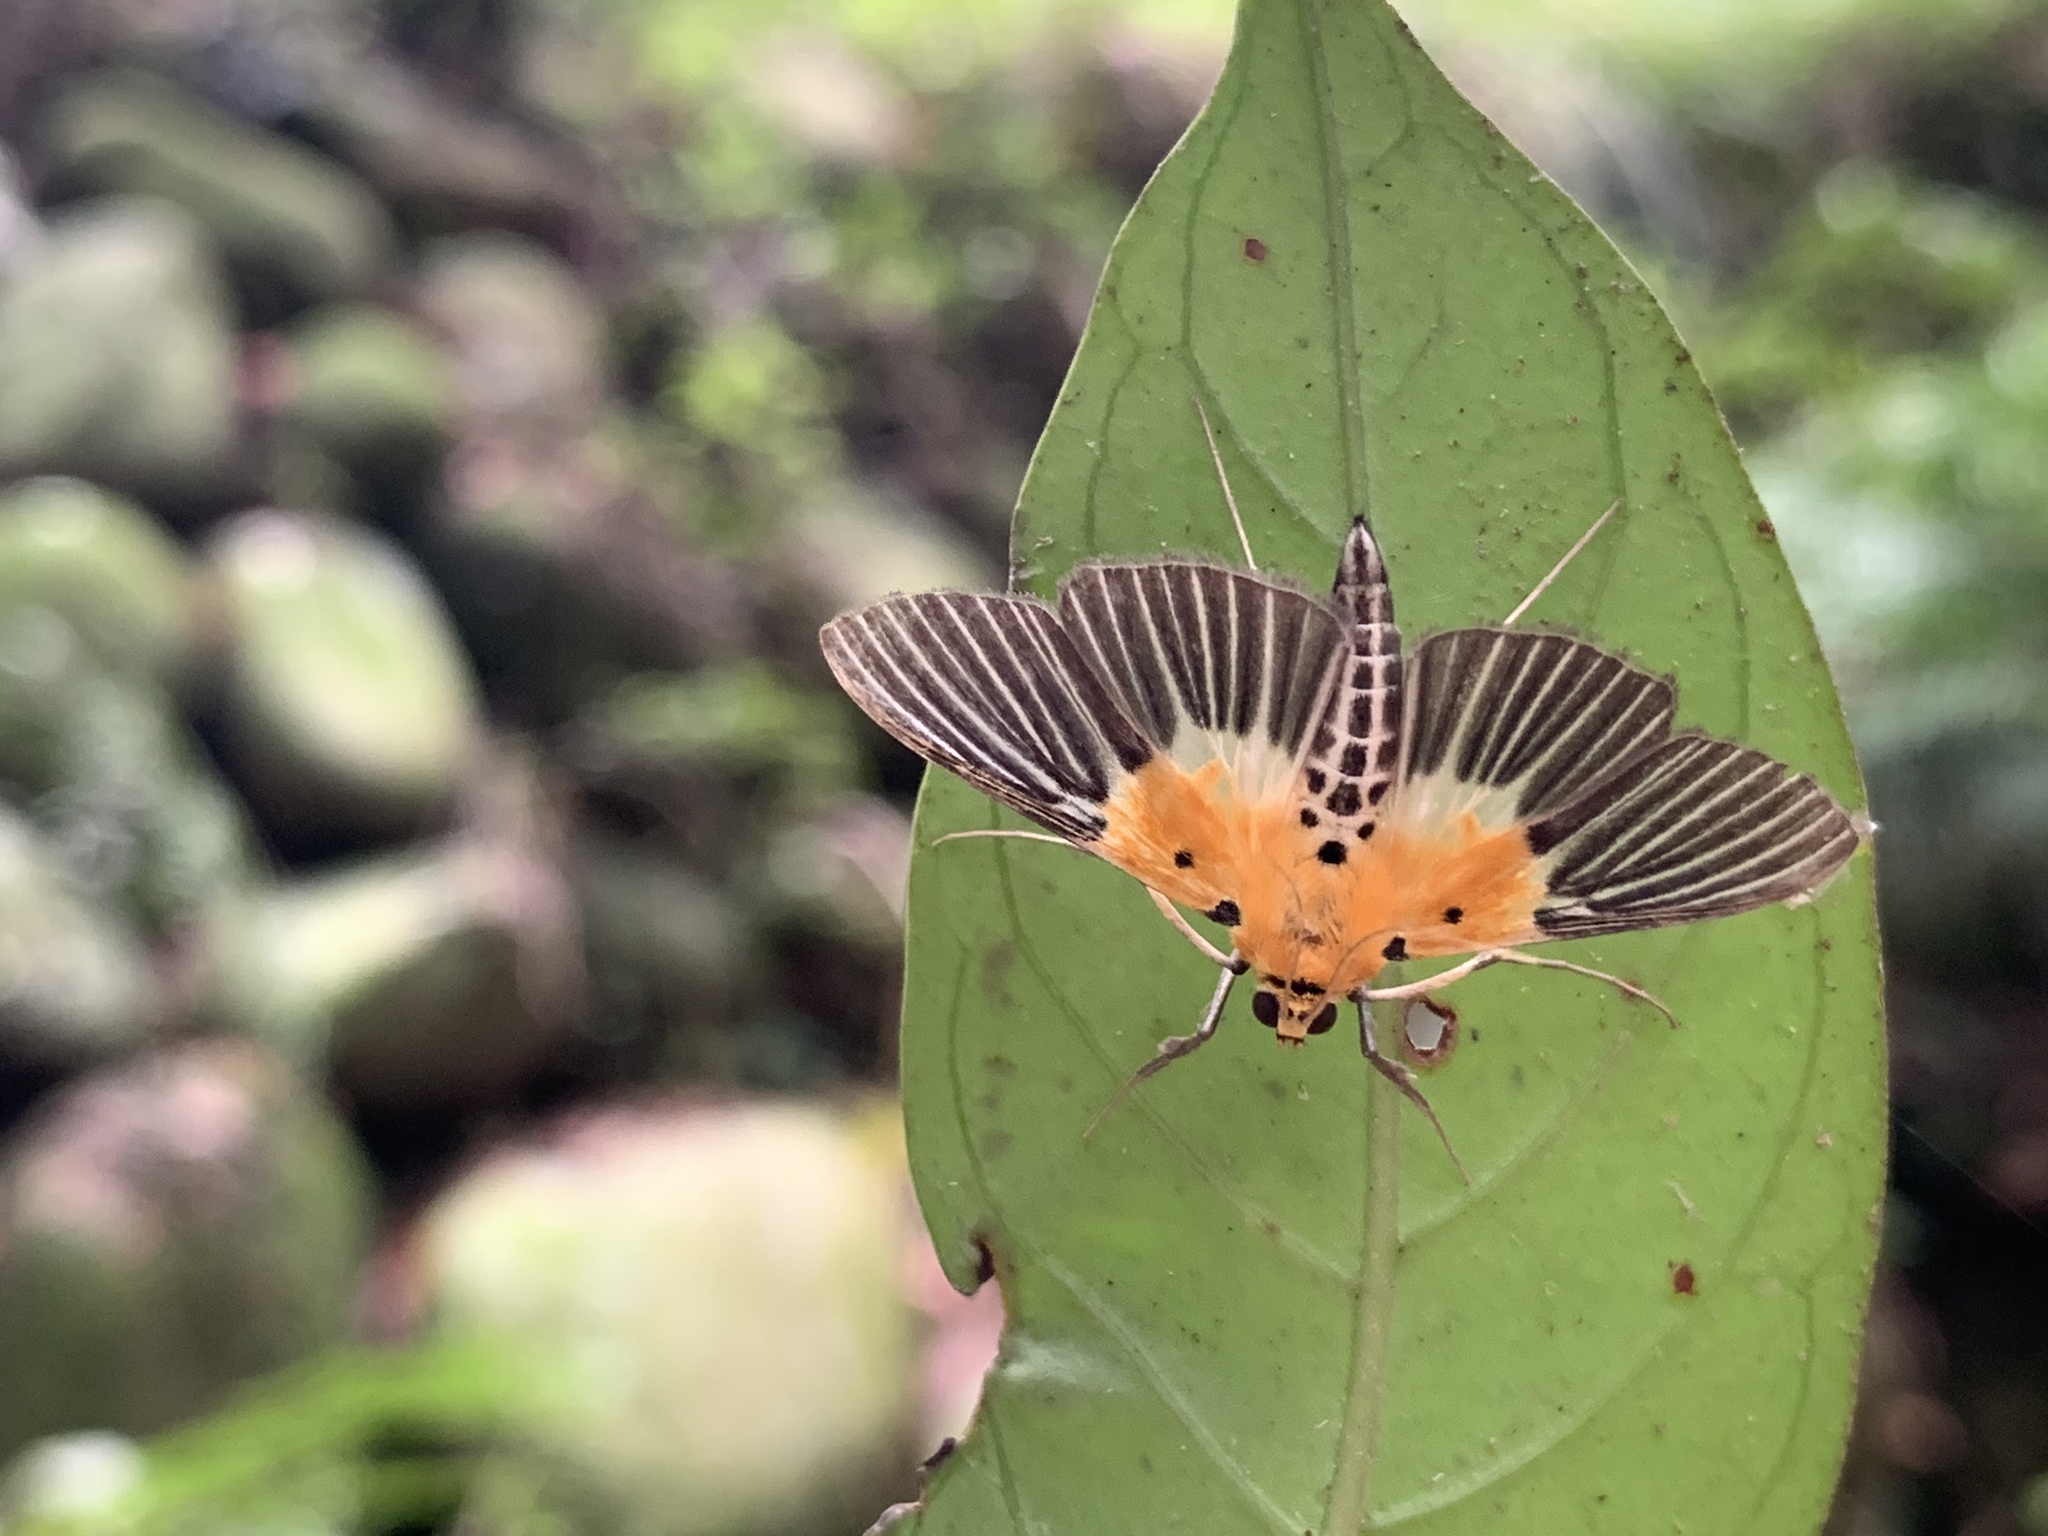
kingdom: Animalia
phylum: Arthropoda
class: Insecta
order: Lepidoptera
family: Crambidae
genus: Nevrina
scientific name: Nevrina procopia
